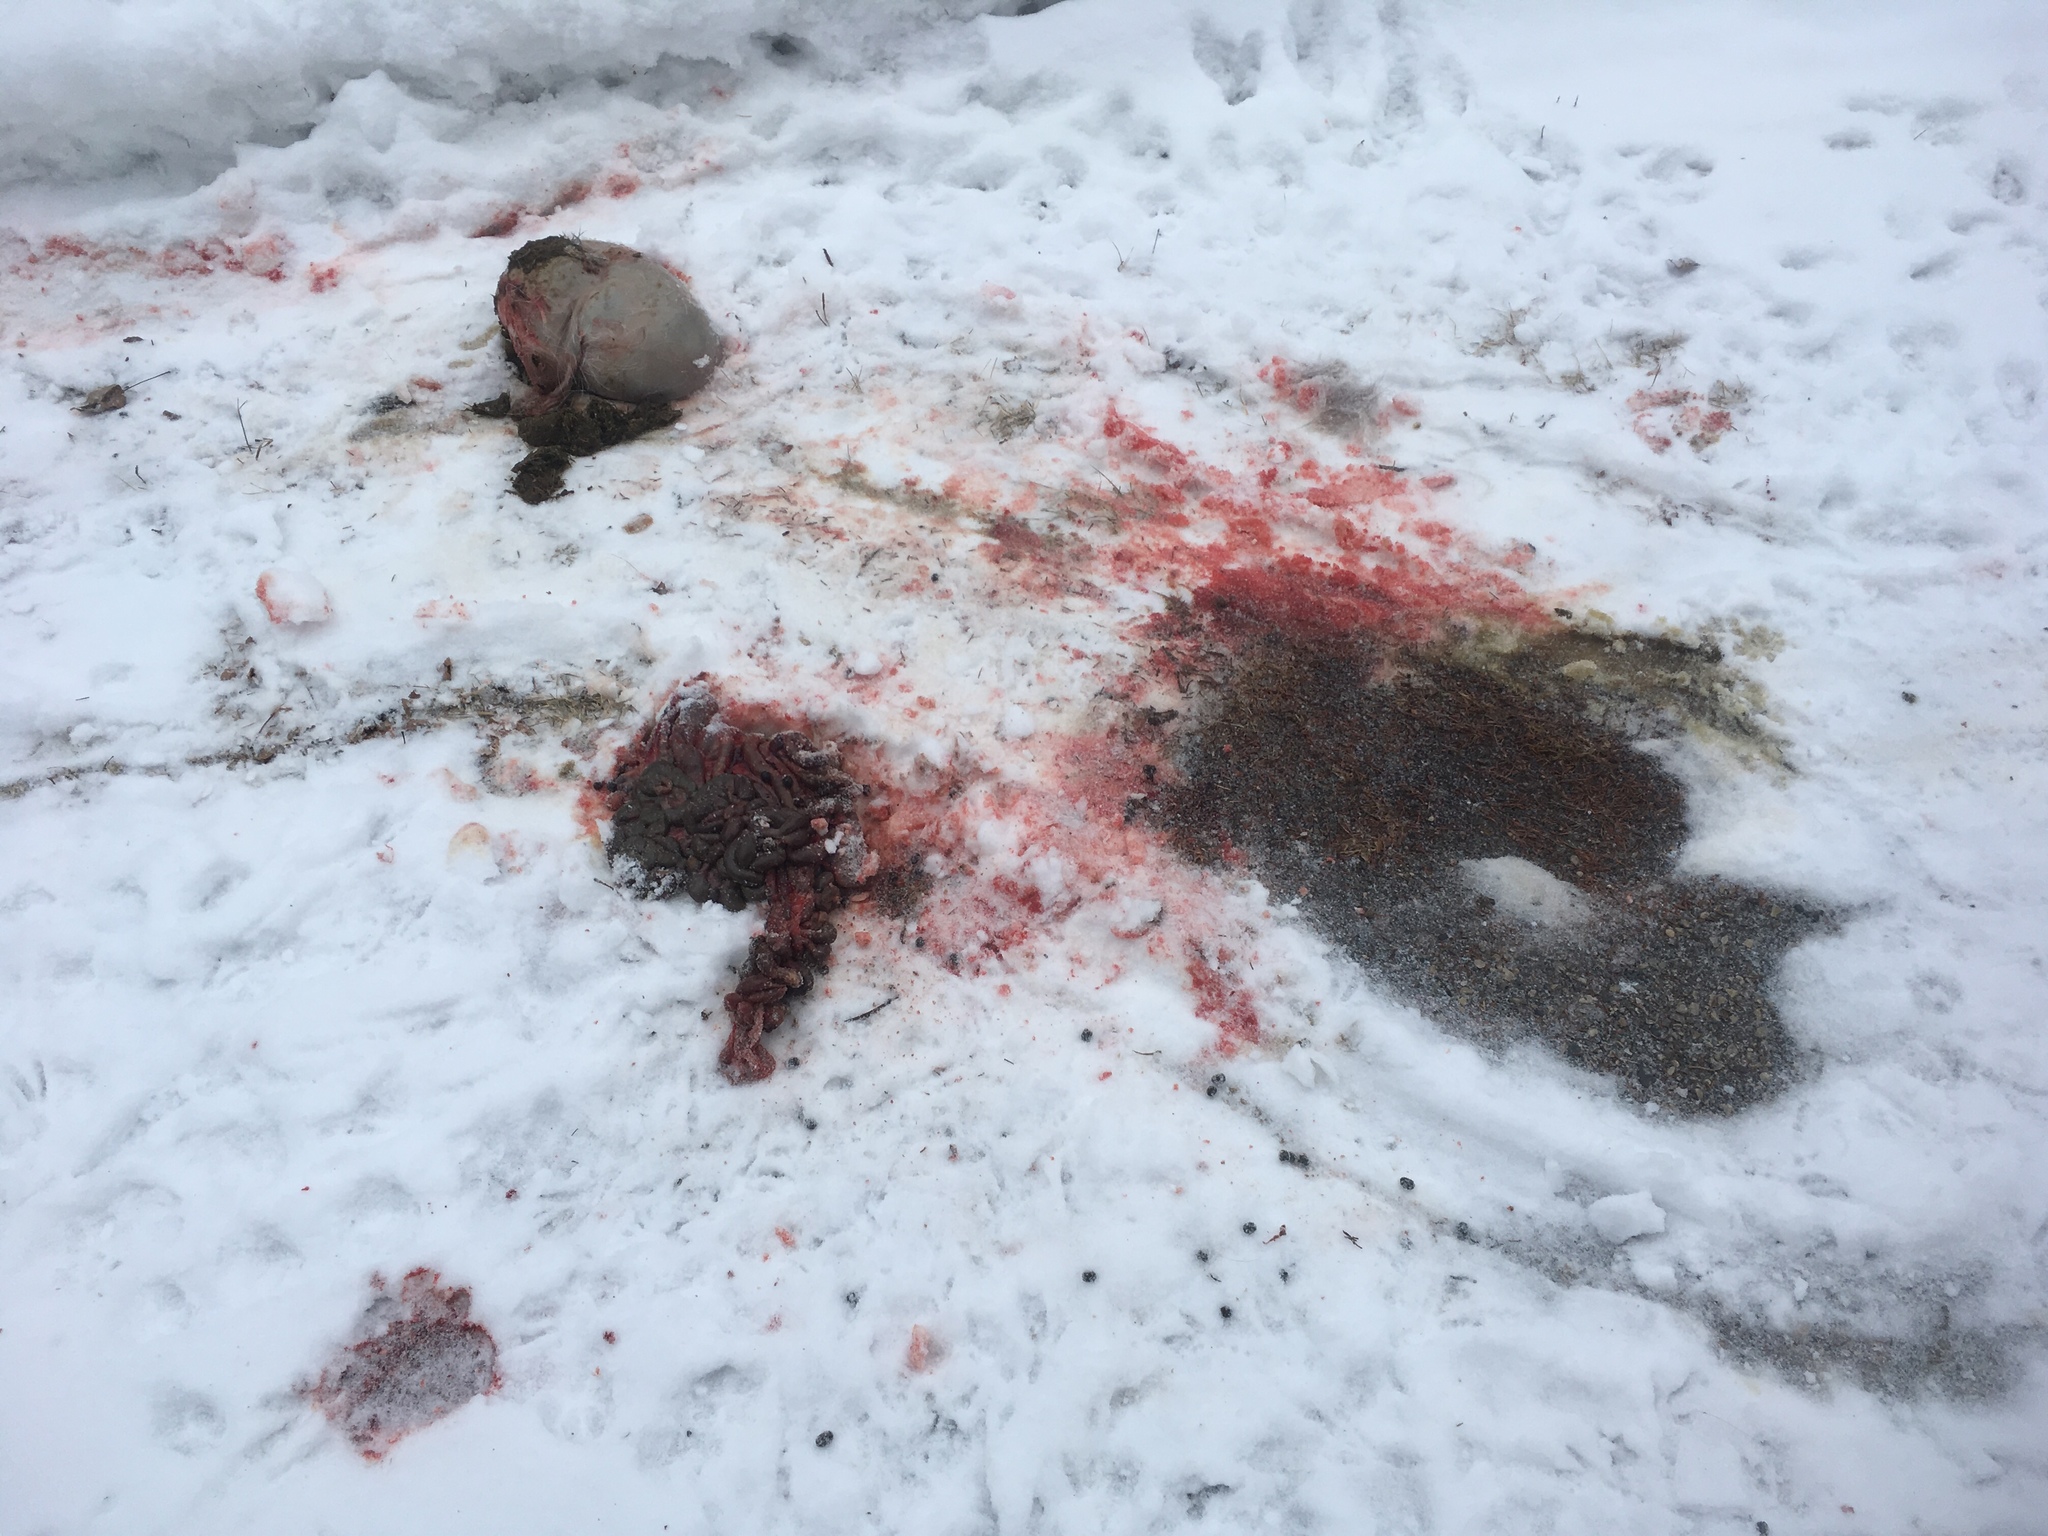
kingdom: Animalia
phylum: Chordata
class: Mammalia
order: Artiodactyla
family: Cervidae
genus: Odocoileus
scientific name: Odocoileus virginianus
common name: White-tailed deer
